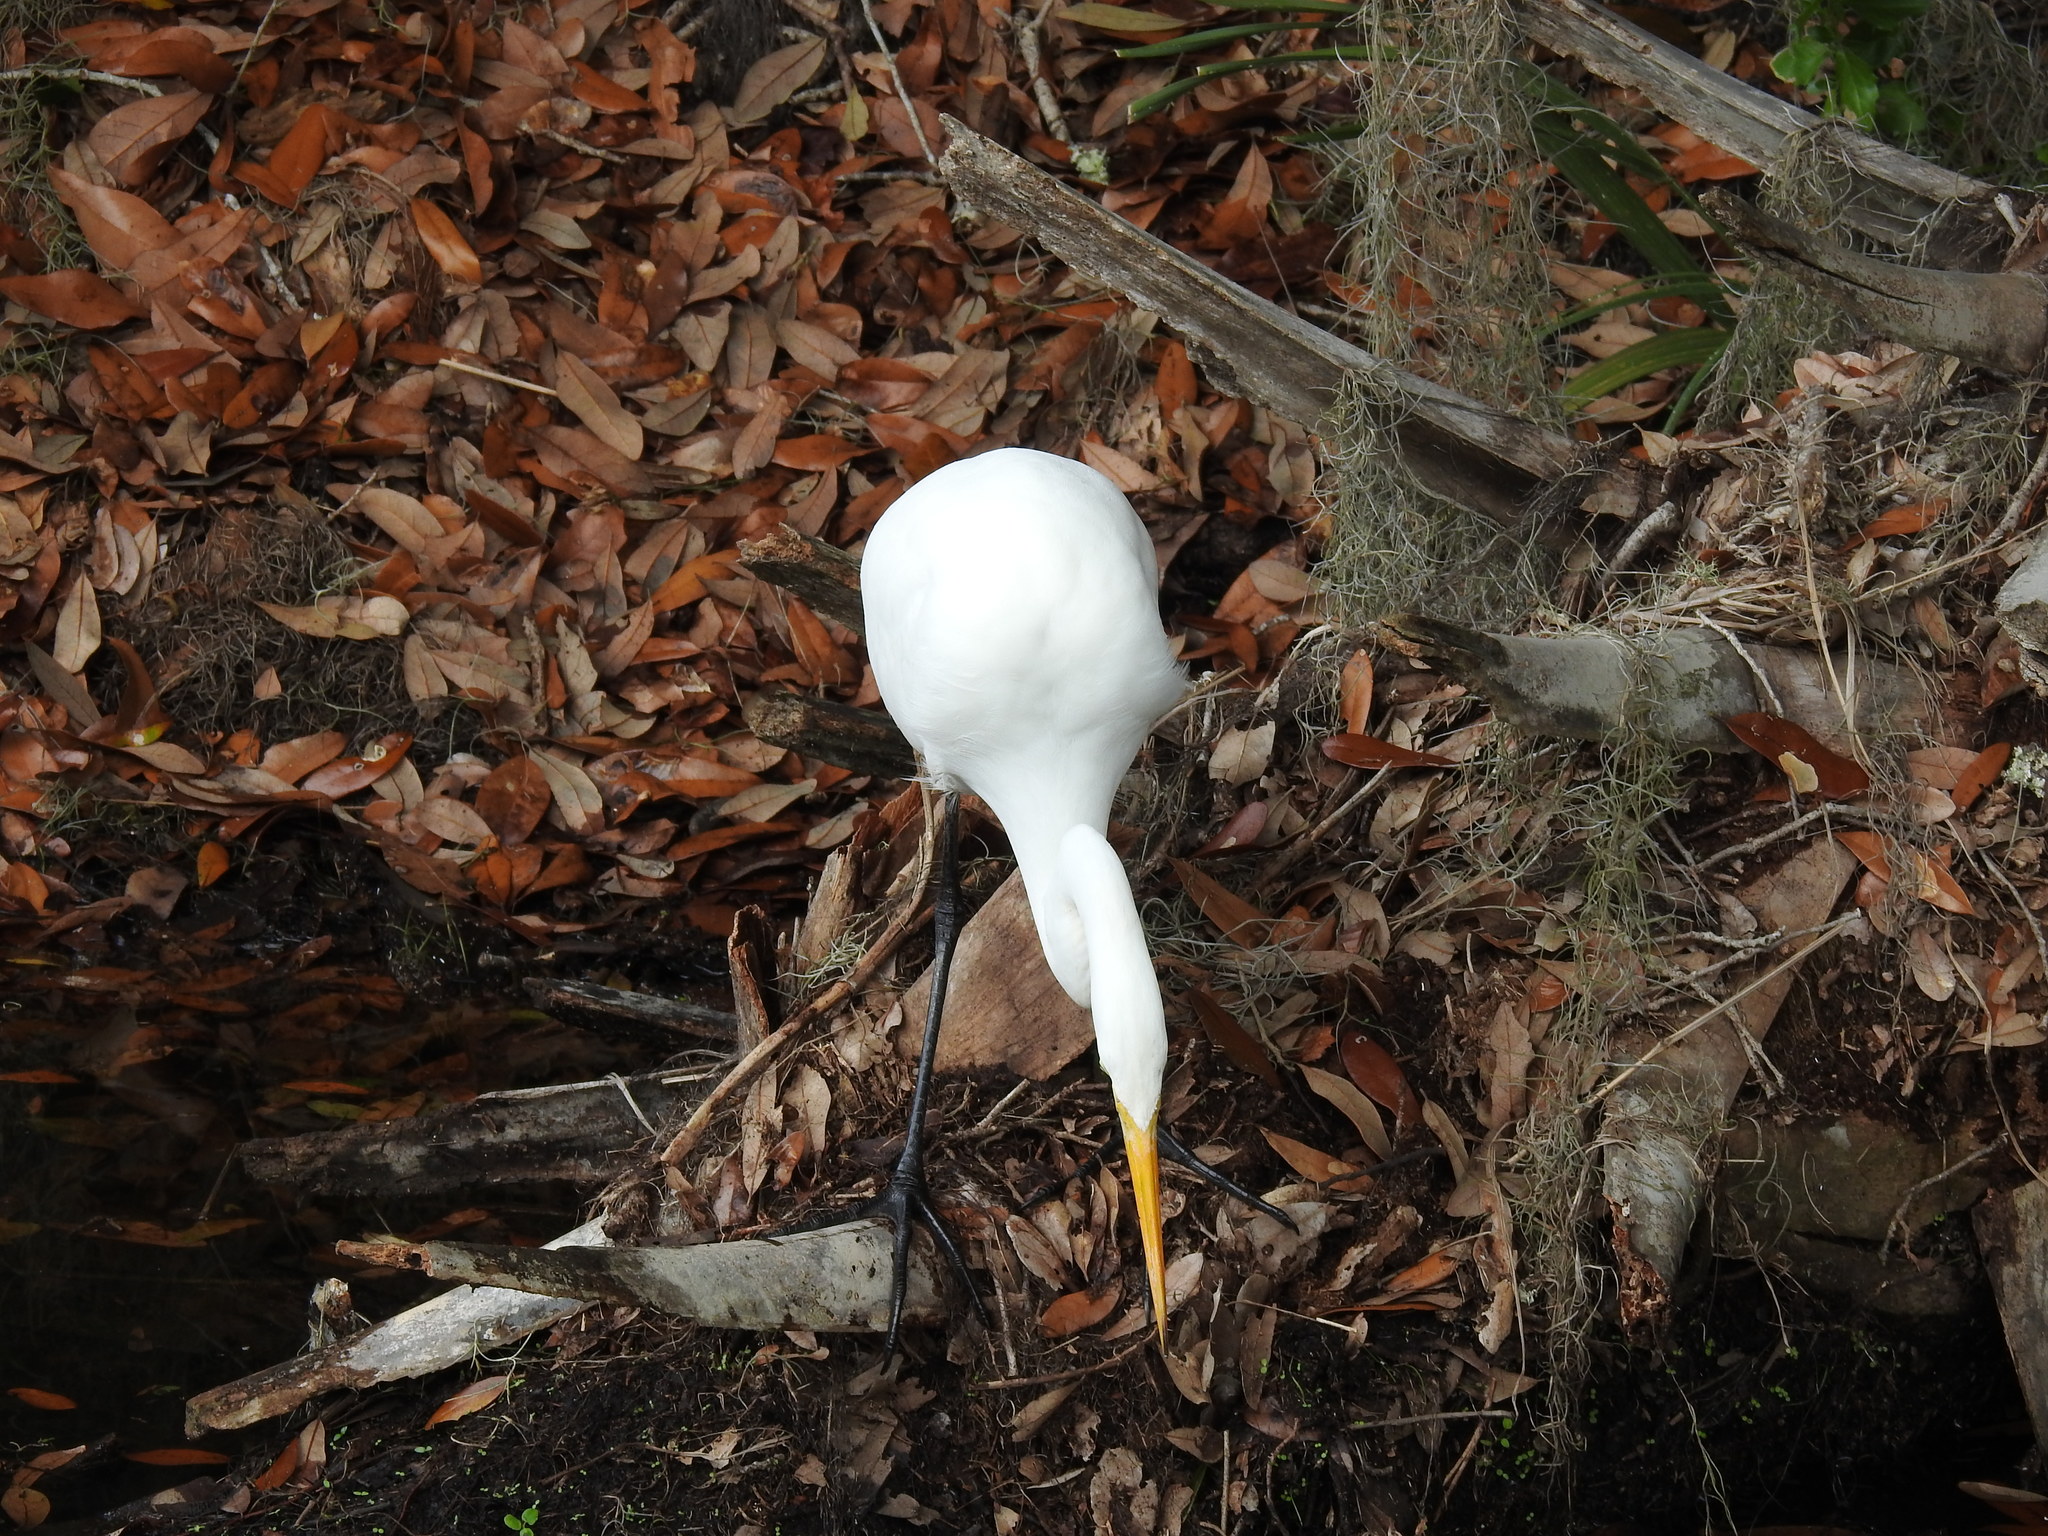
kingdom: Animalia
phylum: Chordata
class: Aves
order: Pelecaniformes
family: Ardeidae
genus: Ardea
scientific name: Ardea alba
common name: Great egret
